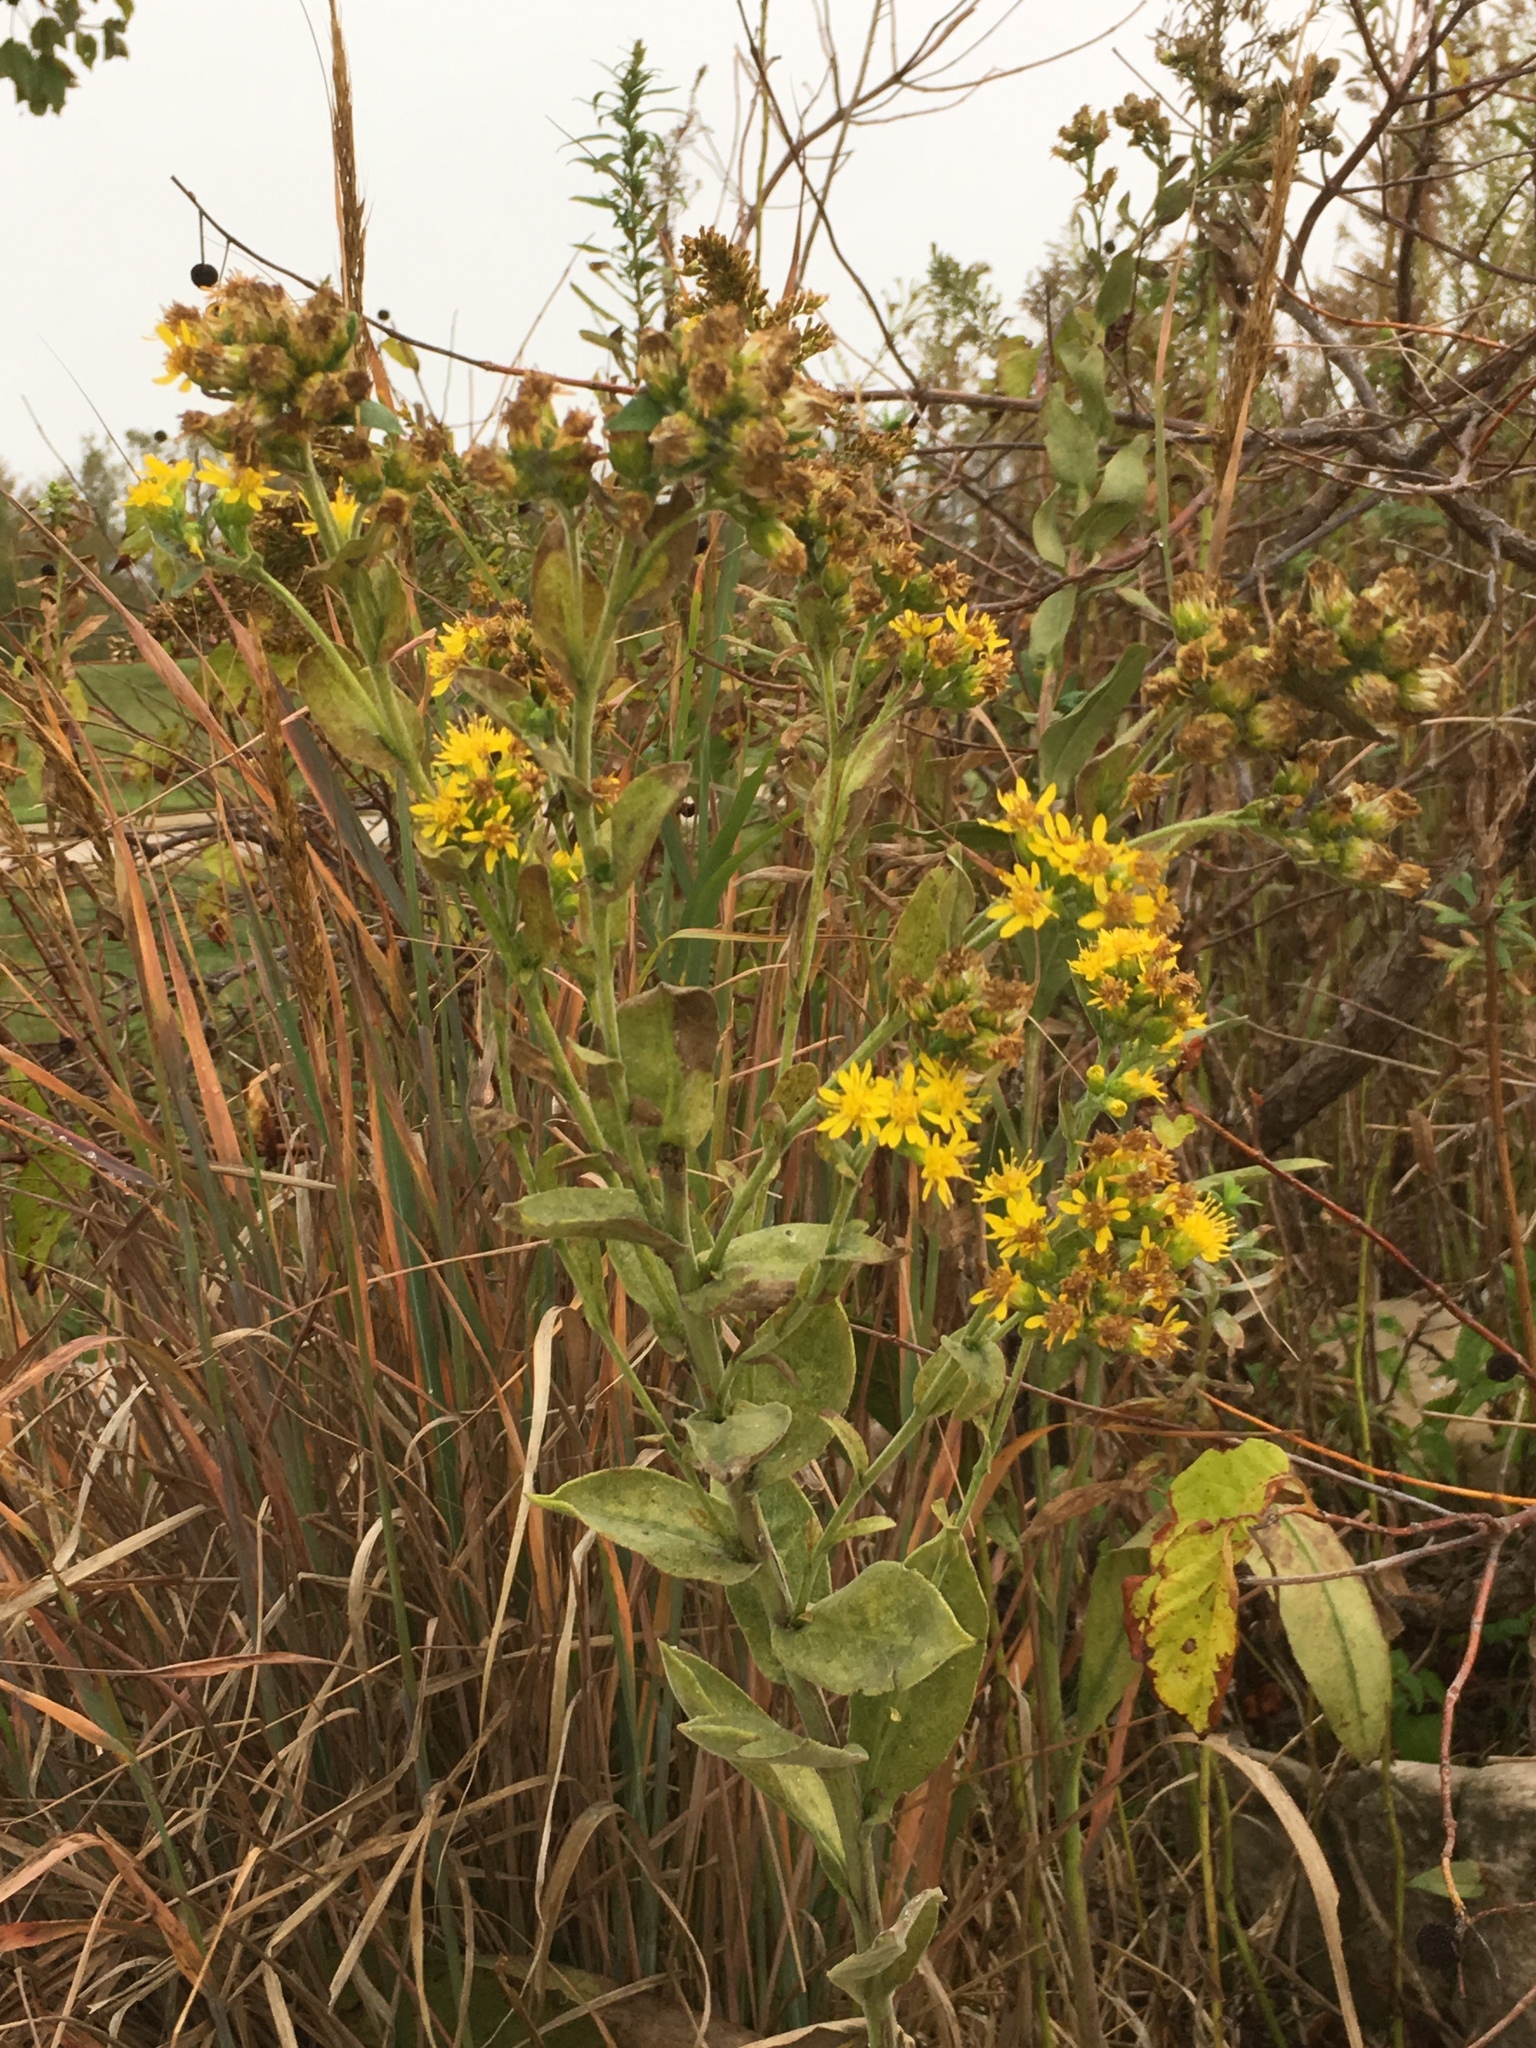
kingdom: Plantae
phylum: Tracheophyta
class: Magnoliopsida
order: Asterales
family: Asteraceae
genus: Solidago
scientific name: Solidago rigida
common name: Rigid goldenrod
